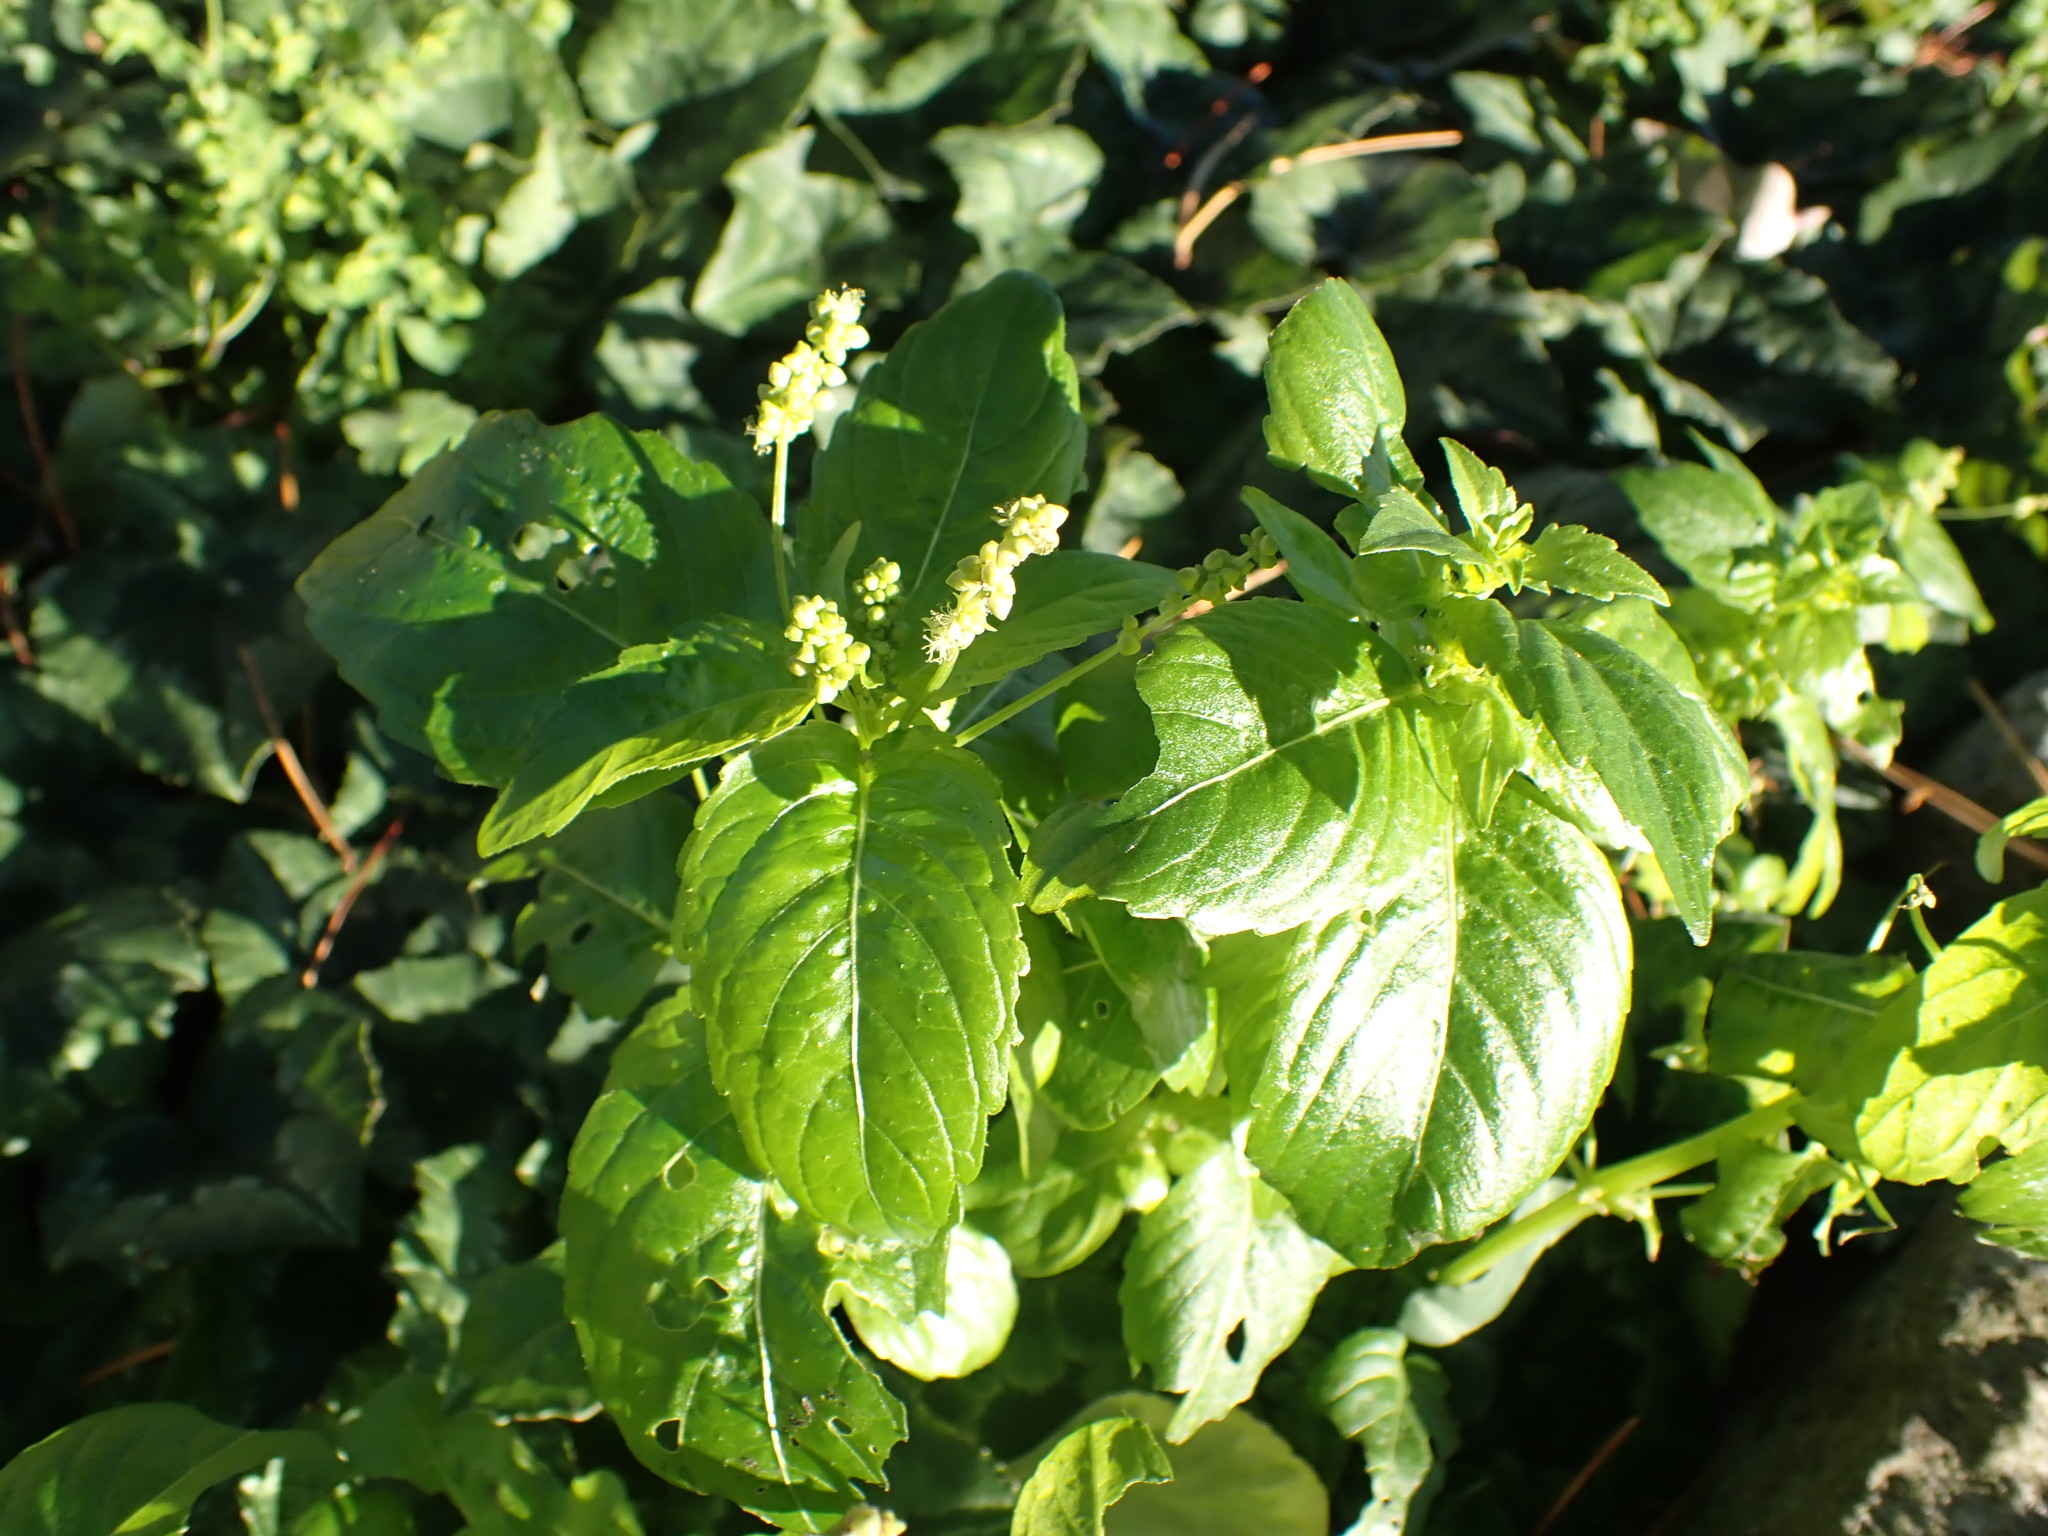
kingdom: Plantae
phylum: Tracheophyta
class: Magnoliopsida
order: Malpighiales
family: Euphorbiaceae
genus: Mercurialis
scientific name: Mercurialis annua
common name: Annual mercury
